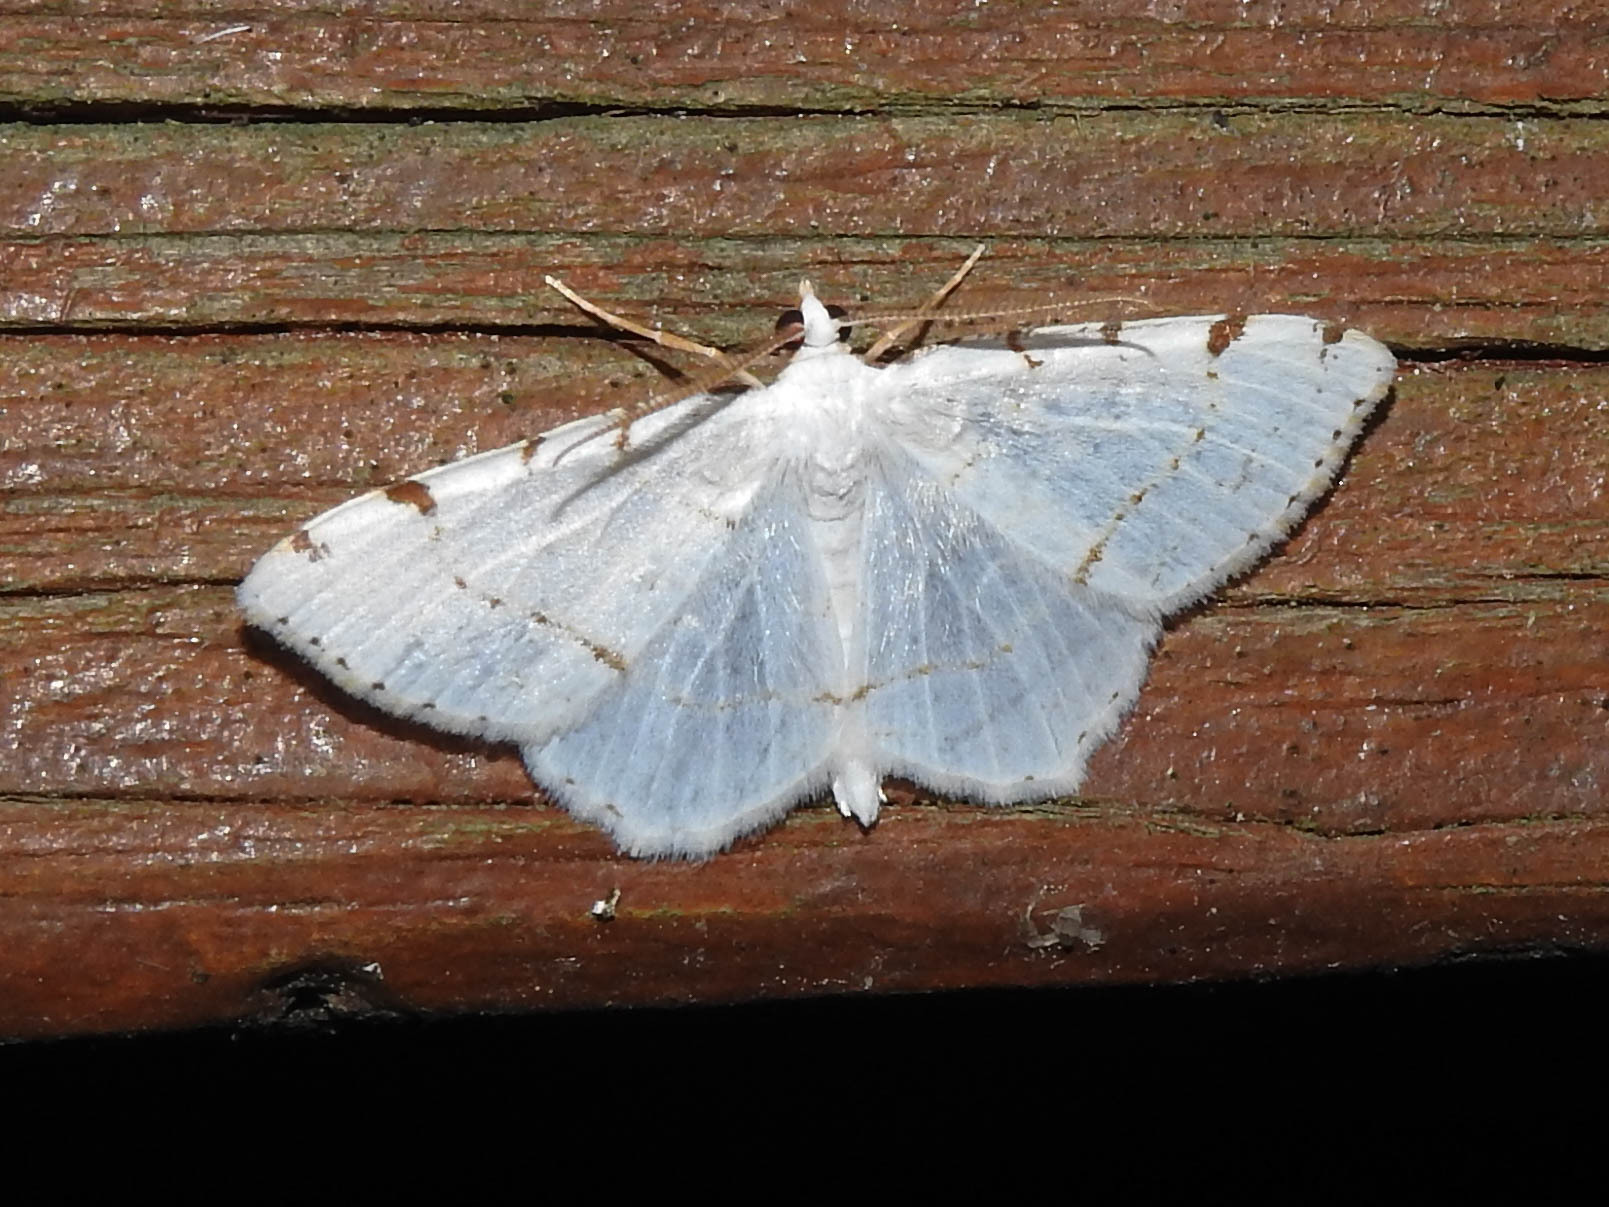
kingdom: Animalia
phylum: Arthropoda
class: Insecta
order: Lepidoptera
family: Geometridae
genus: Macaria
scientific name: Macaria pustularia
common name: Lesser maple spanworm moth
